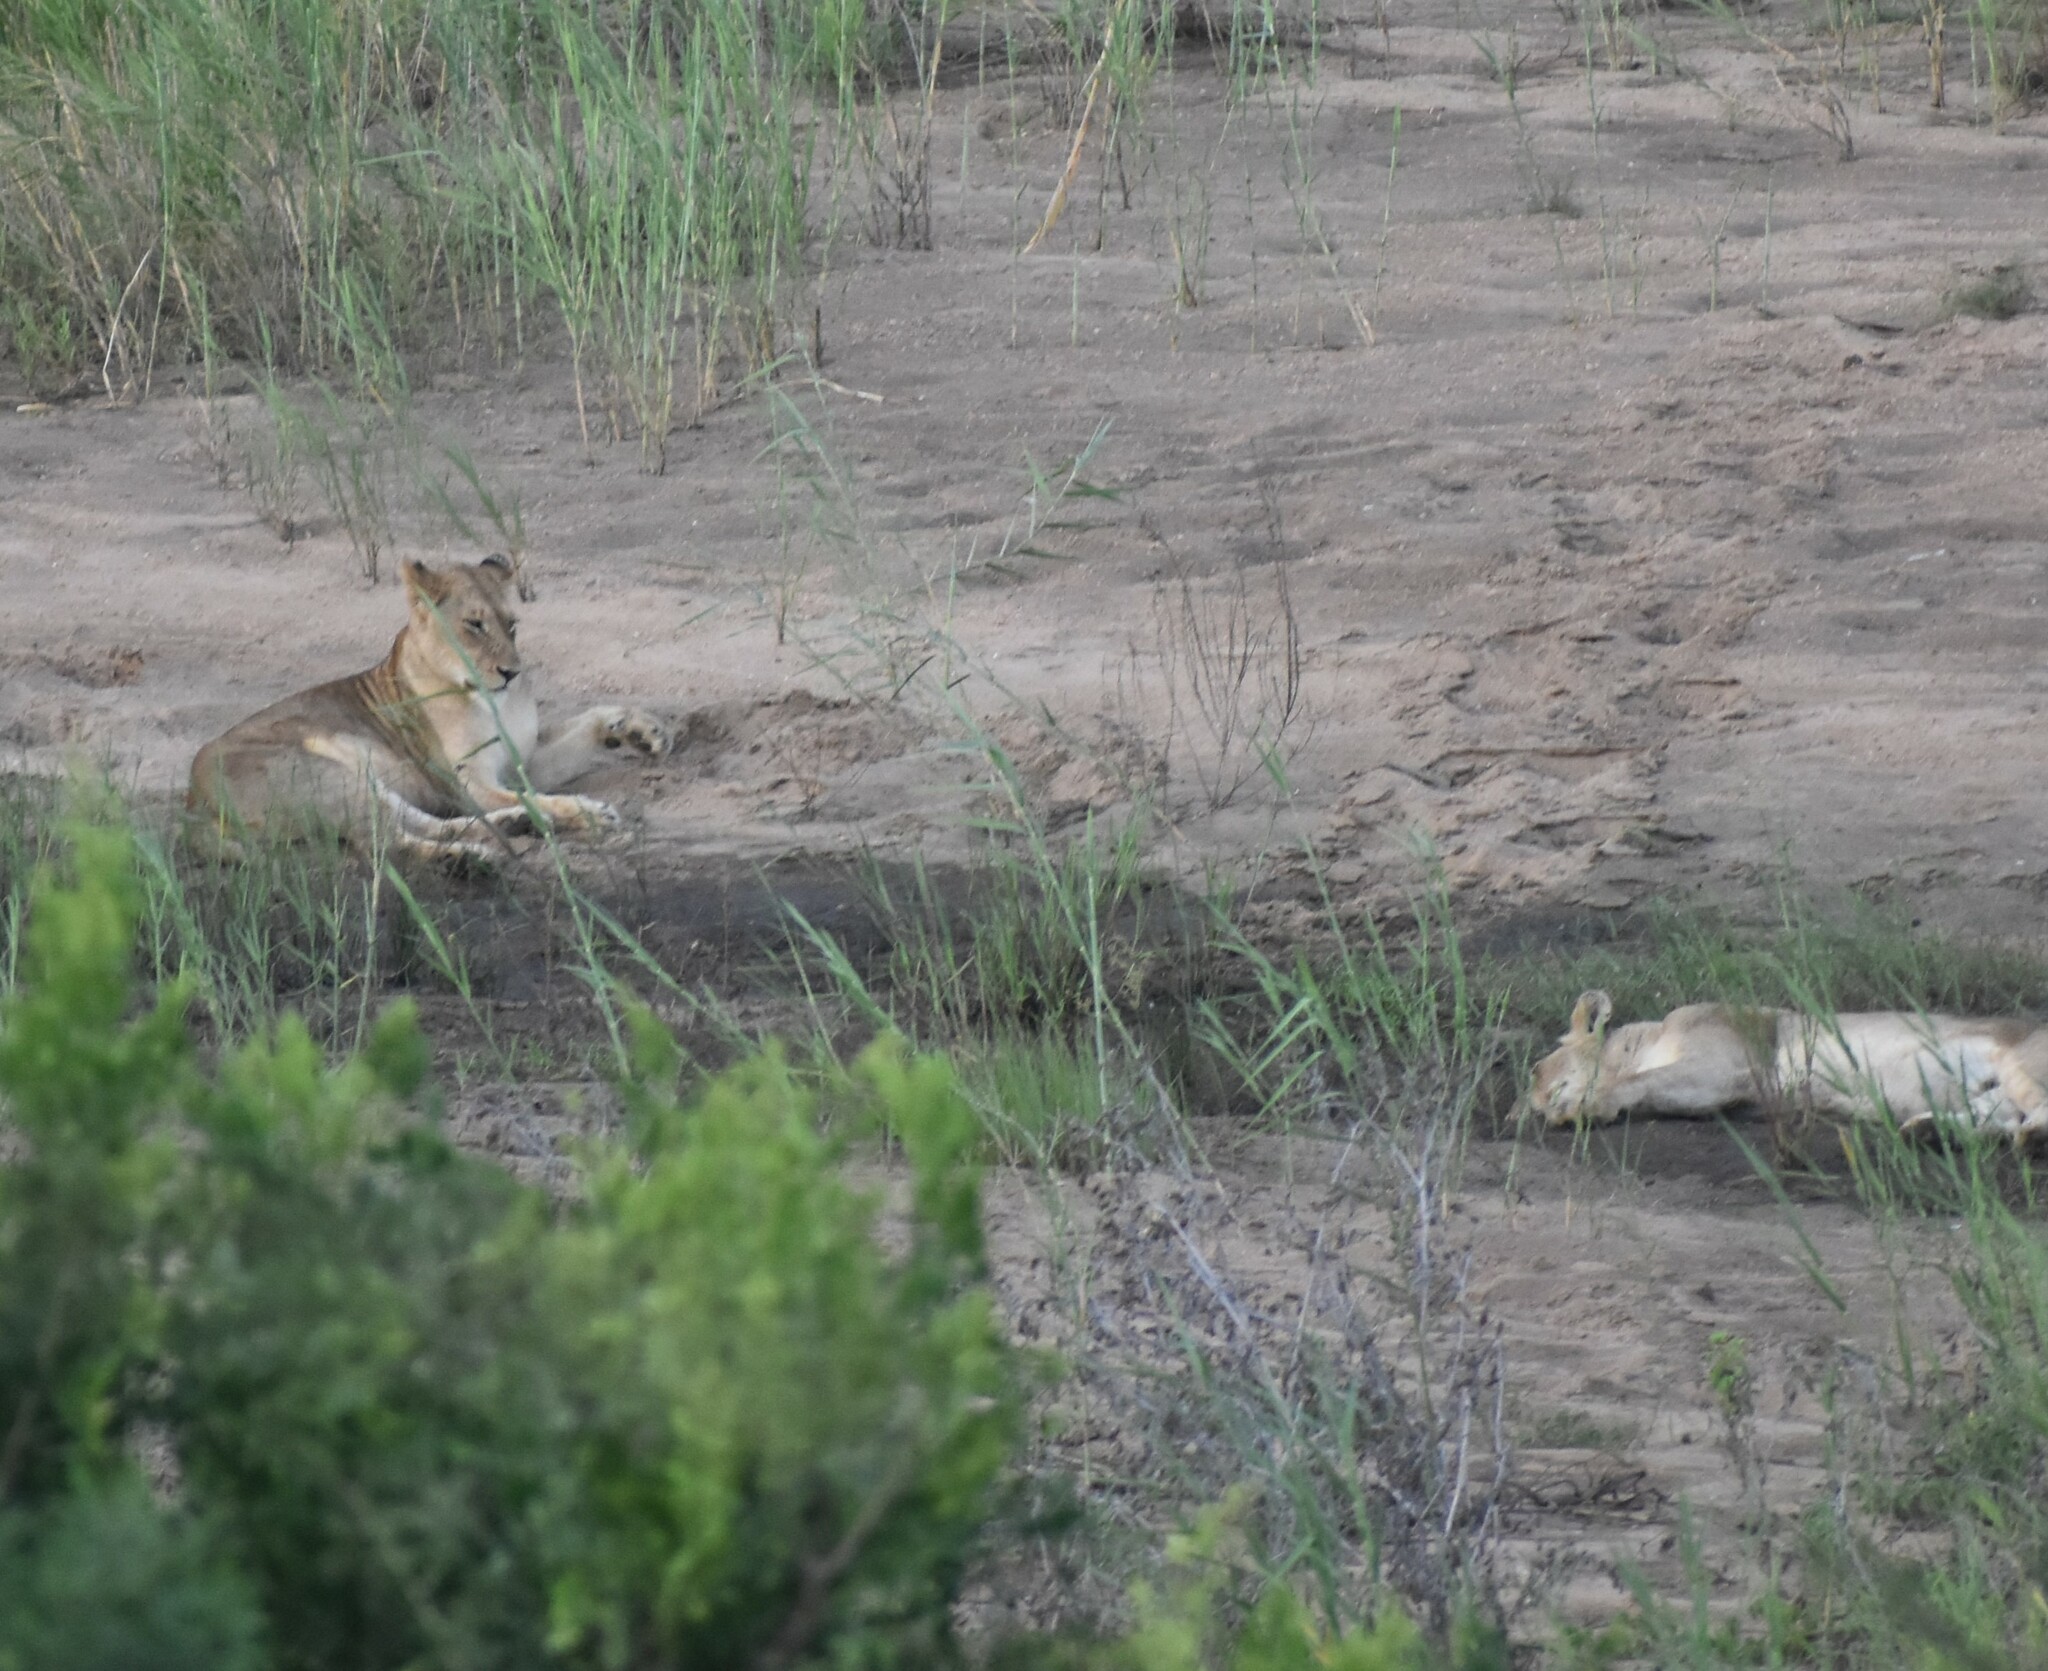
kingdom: Animalia
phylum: Chordata
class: Mammalia
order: Carnivora
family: Felidae
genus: Panthera
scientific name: Panthera leo
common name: Lion
